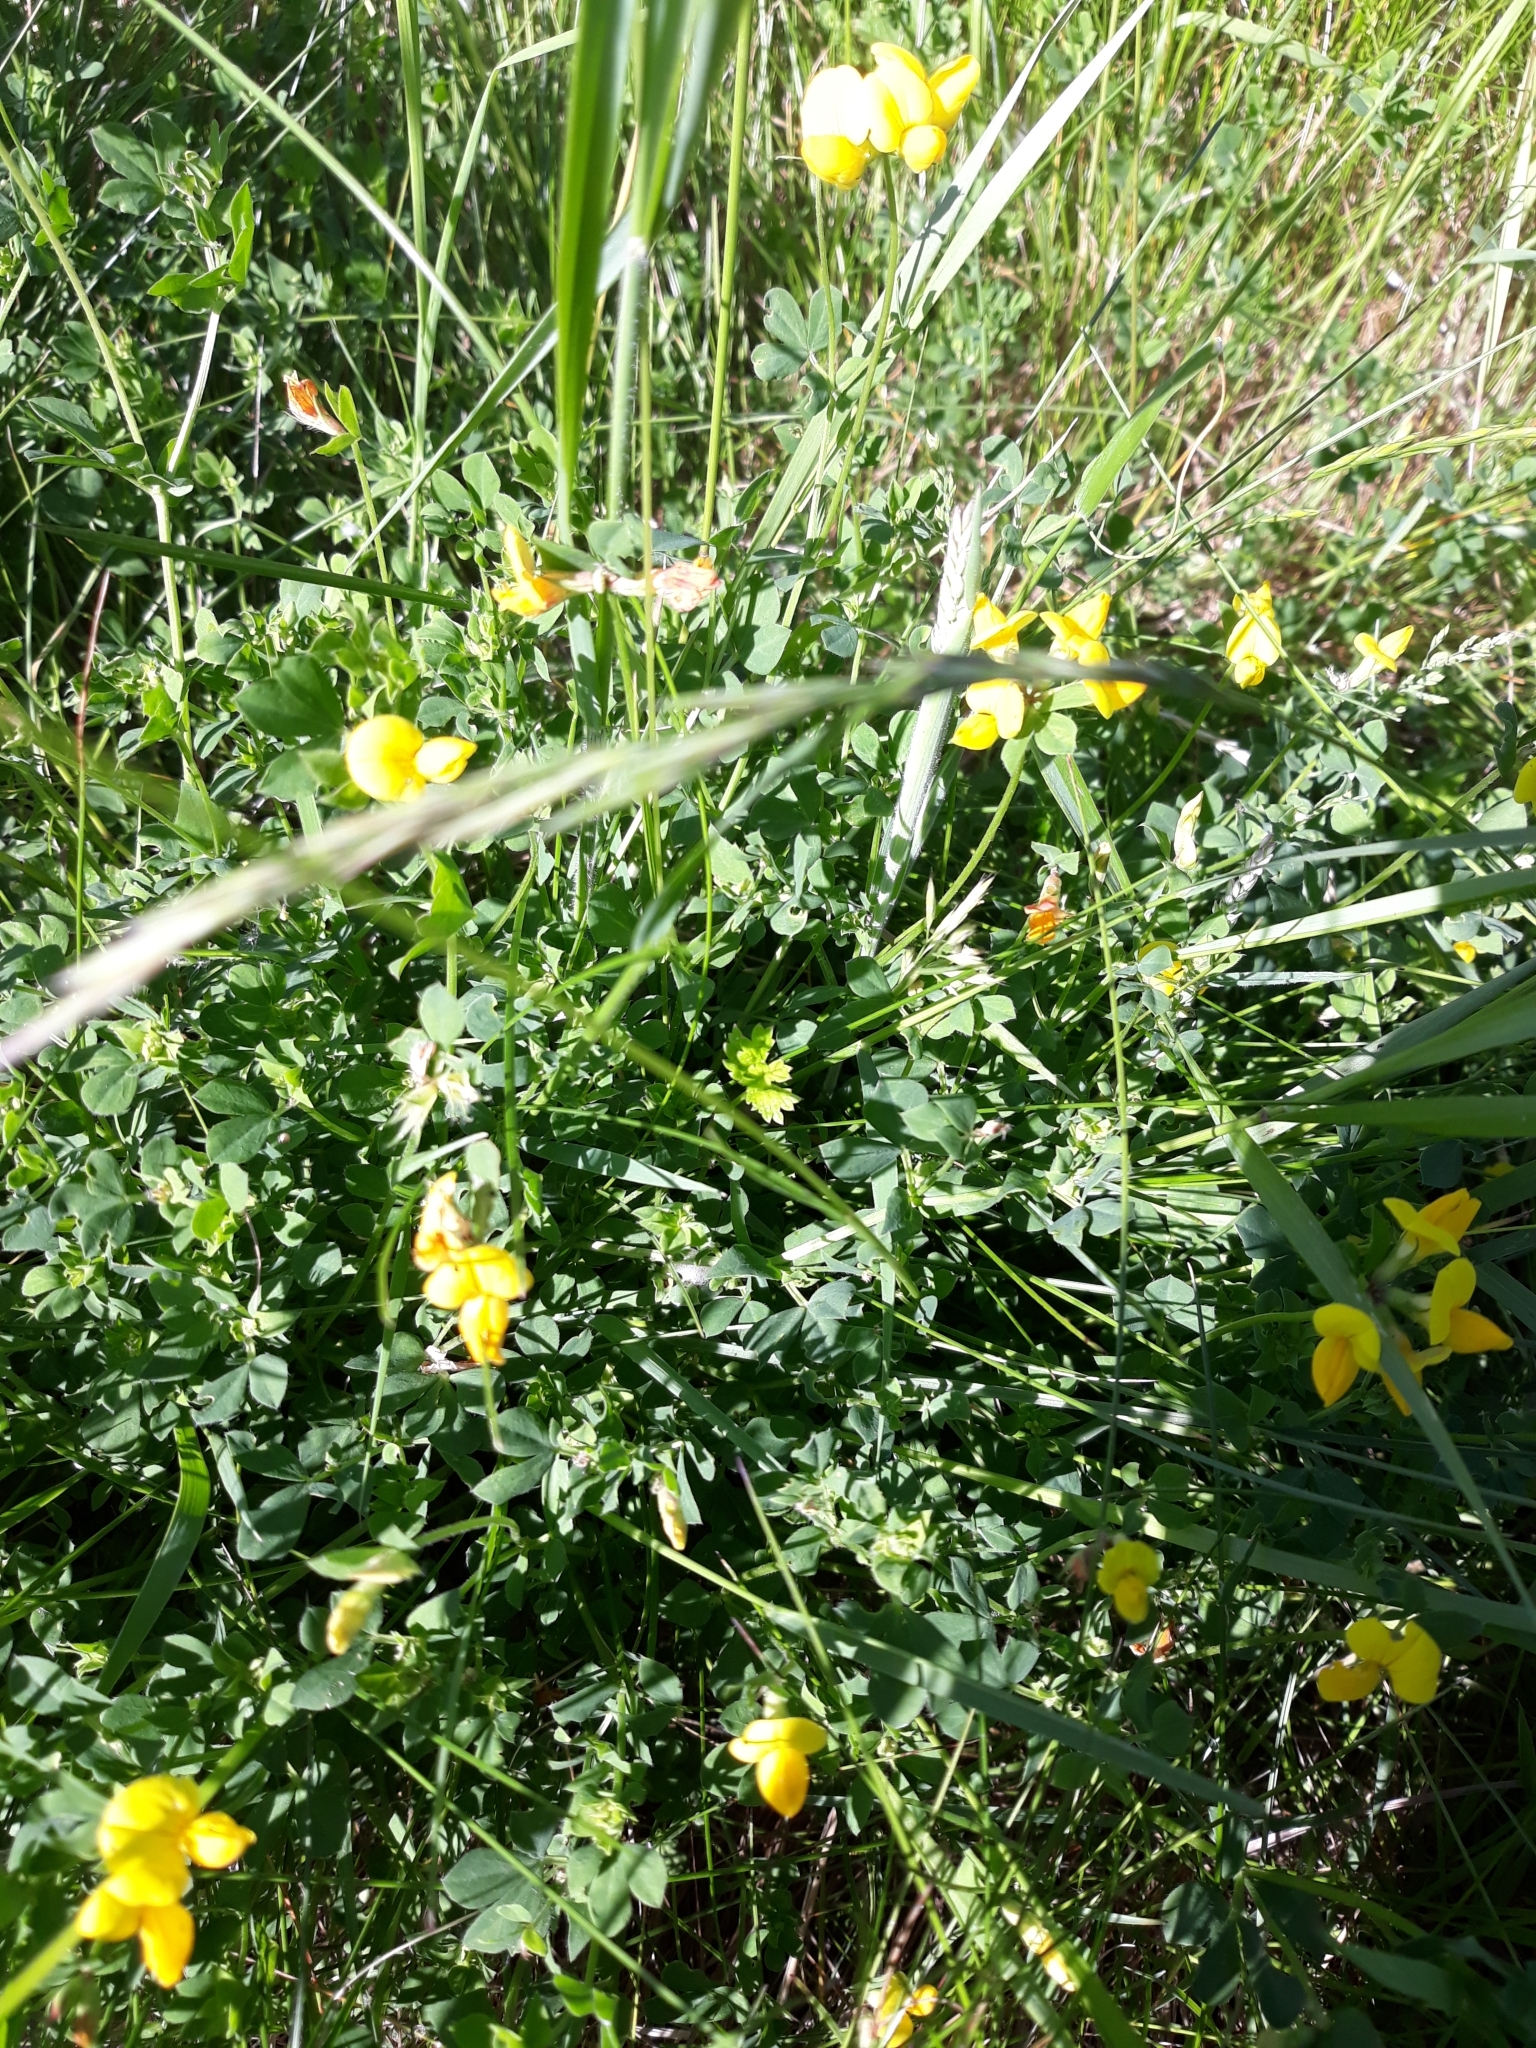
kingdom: Plantae
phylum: Tracheophyta
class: Magnoliopsida
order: Fabales
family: Fabaceae
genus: Lotus
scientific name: Lotus corniculatus
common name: Common bird's-foot-trefoil
